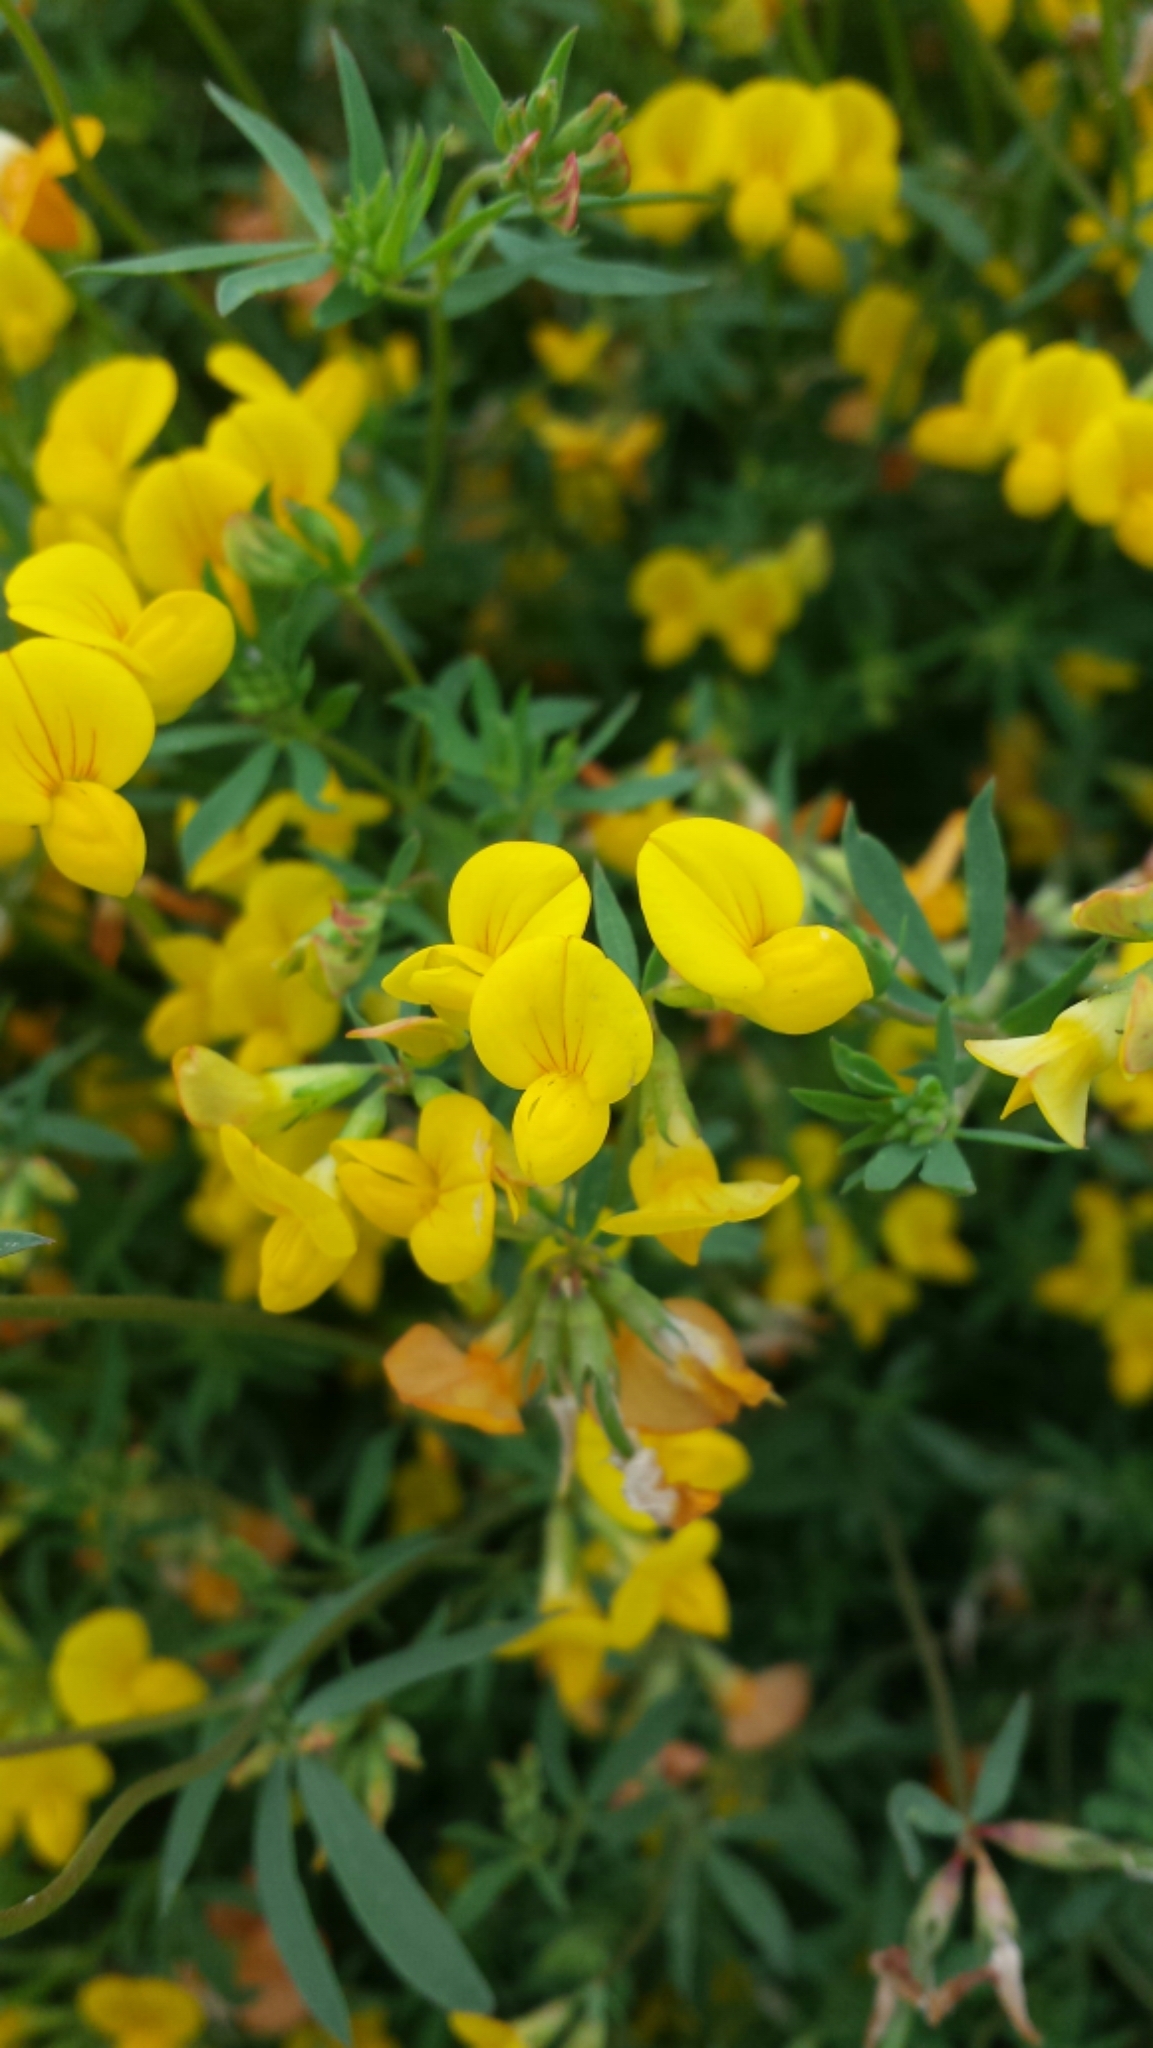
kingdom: Plantae
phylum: Tracheophyta
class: Magnoliopsida
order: Fabales
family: Fabaceae
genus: Acmispon
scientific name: Acmispon glaber
